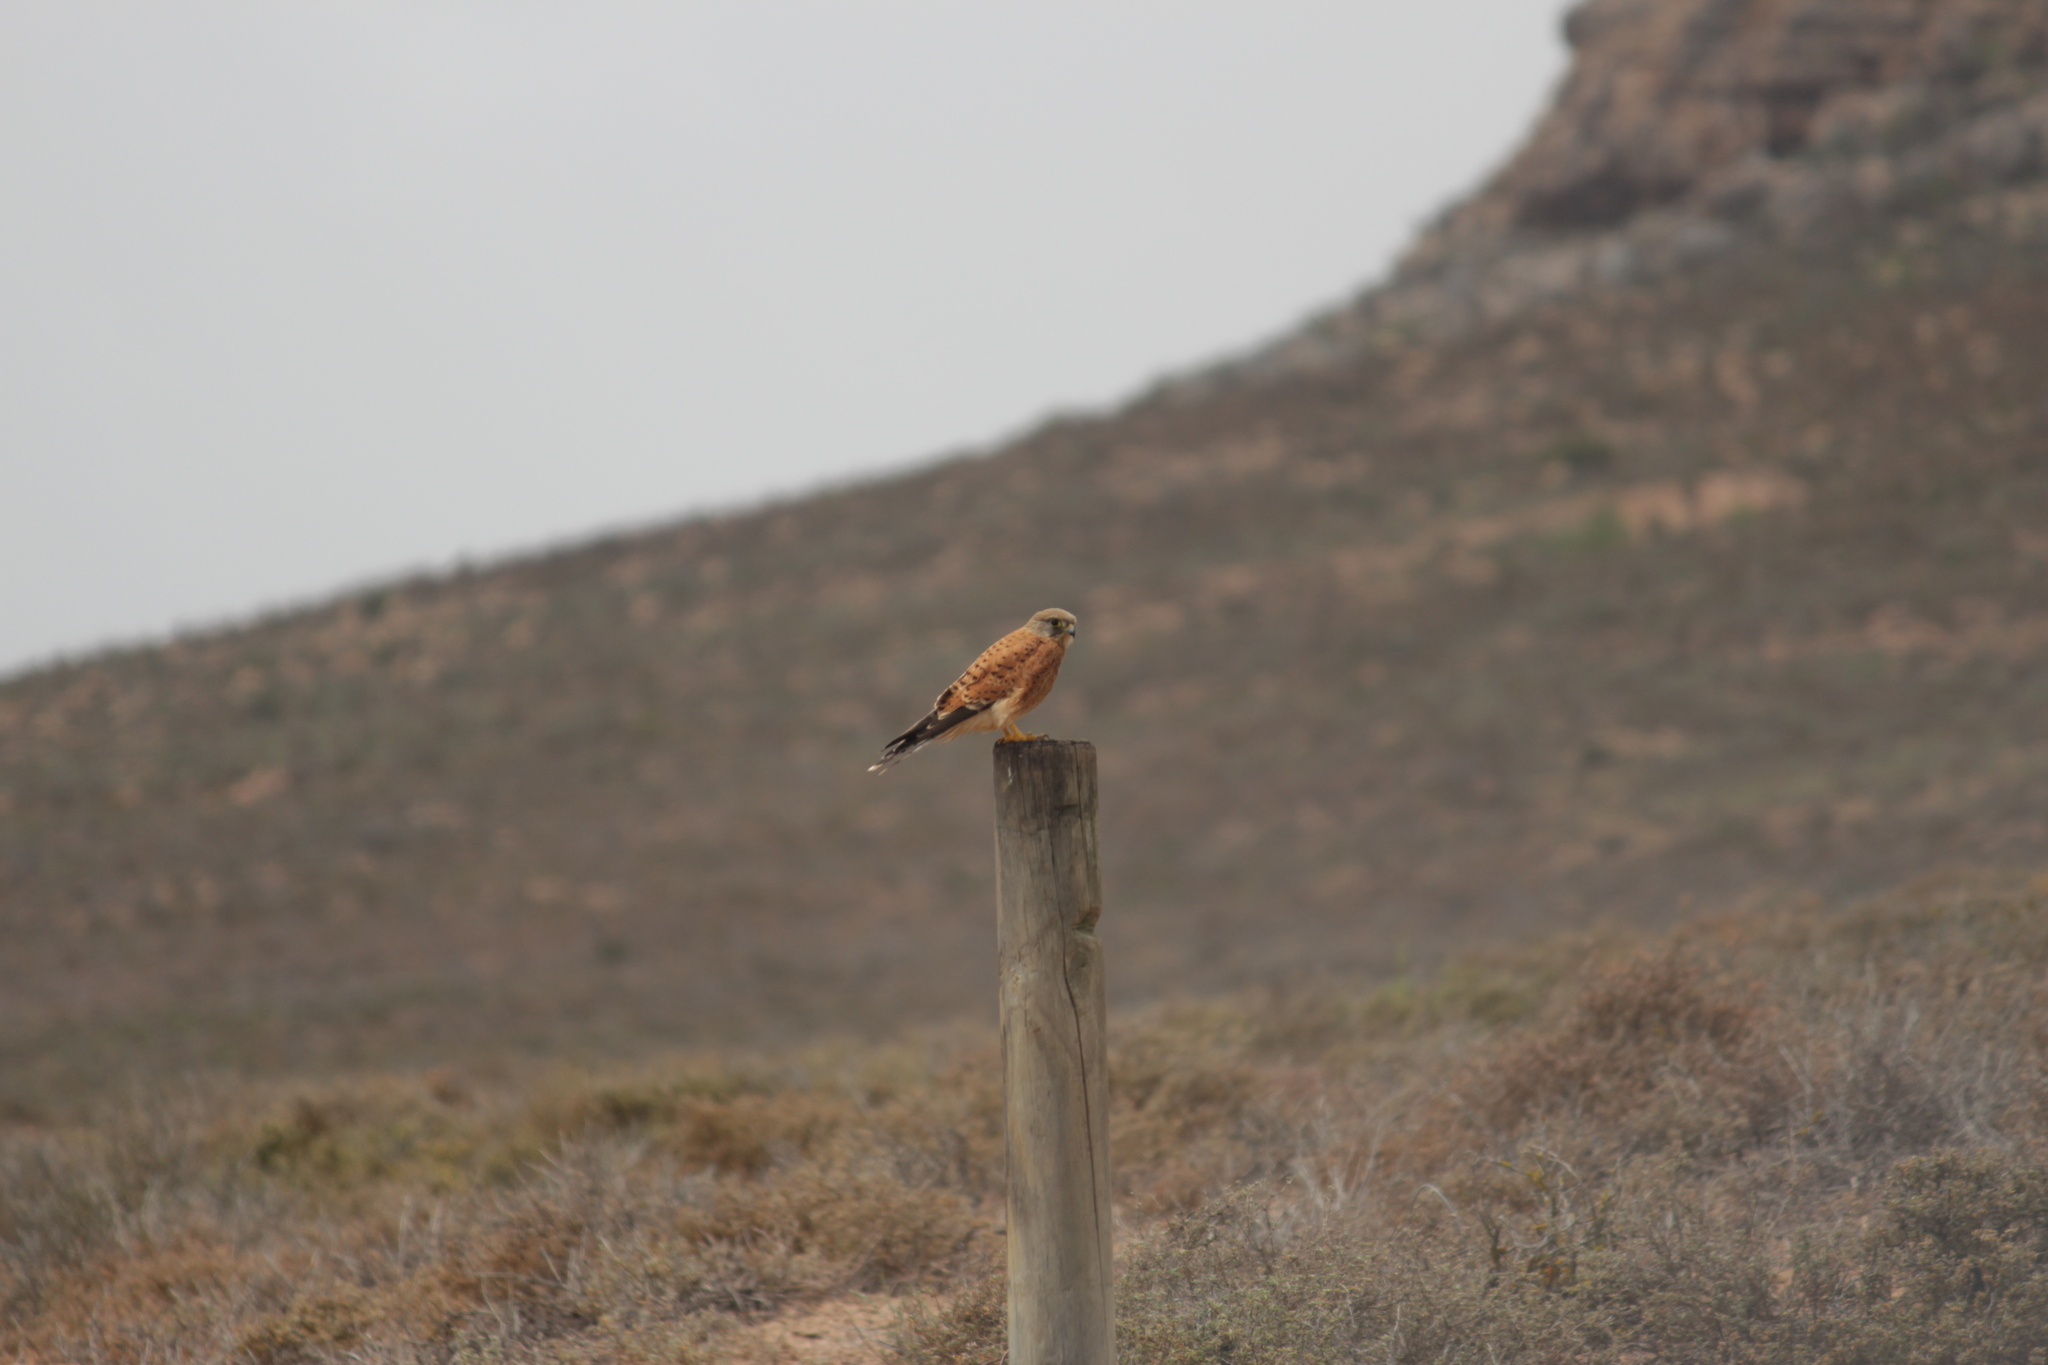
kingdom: Animalia
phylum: Chordata
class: Aves
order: Falconiformes
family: Falconidae
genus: Falco
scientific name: Falco rupicolus
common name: Rock kestrel
